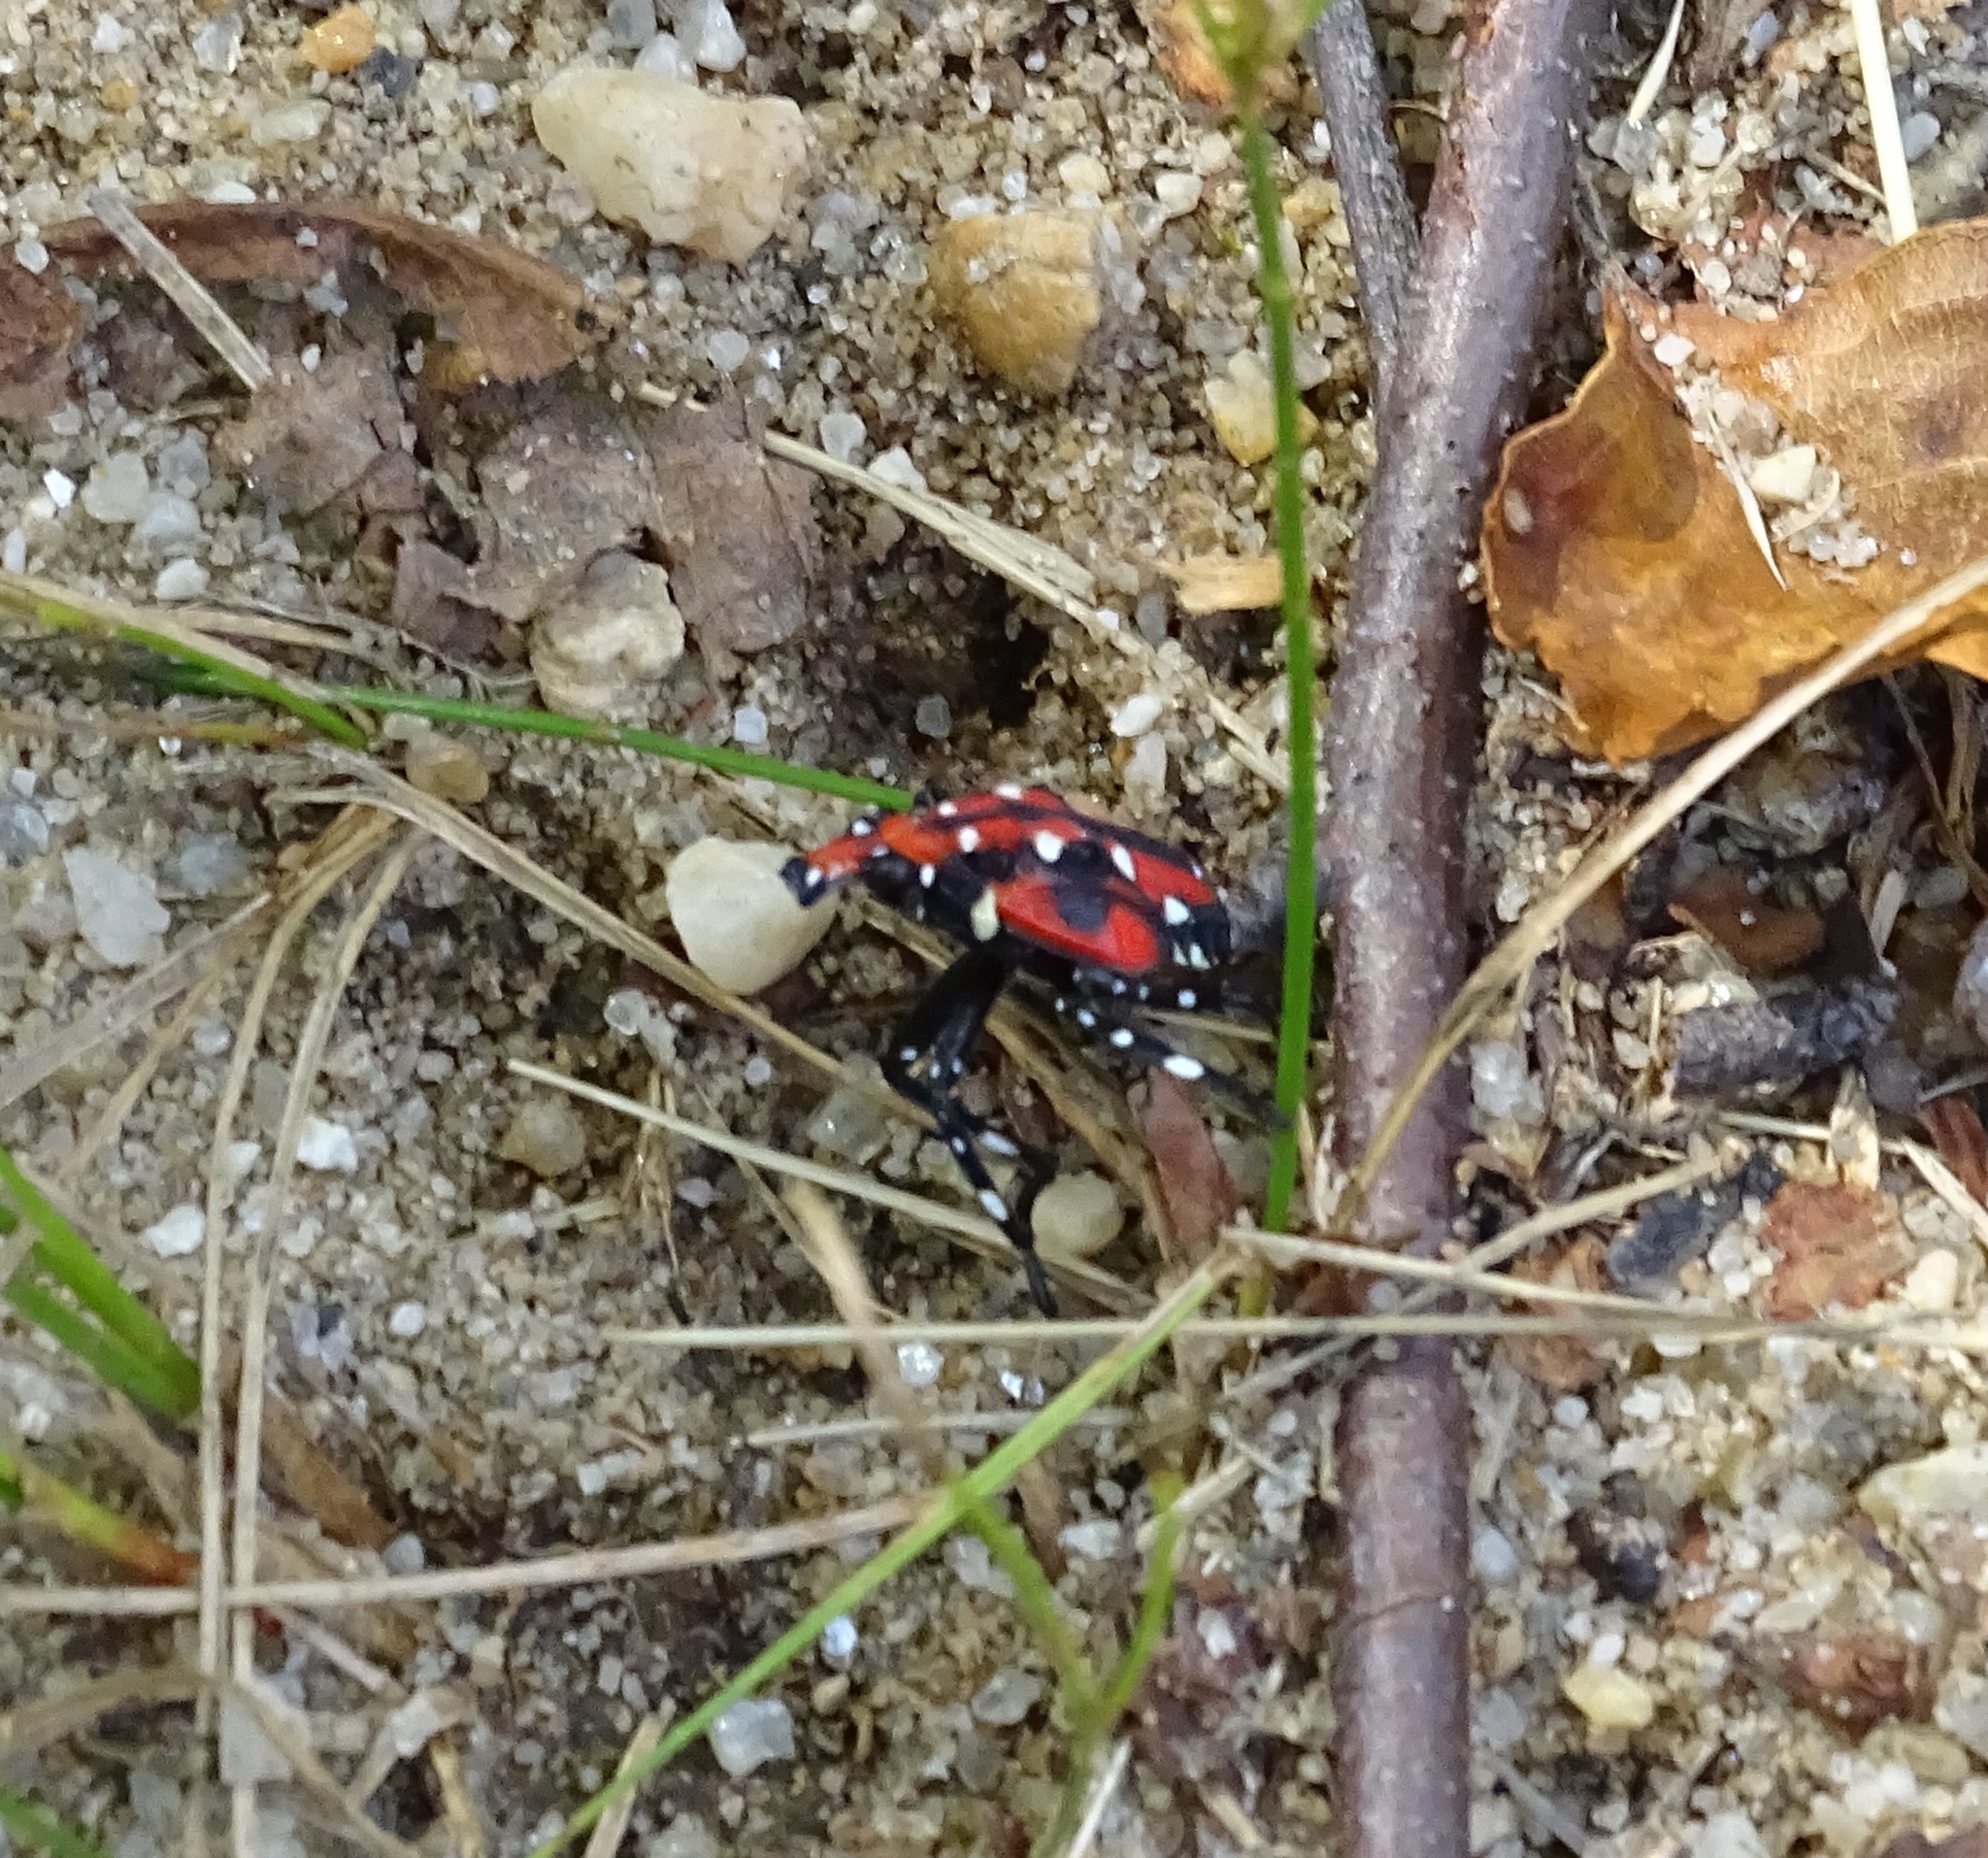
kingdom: Animalia
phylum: Arthropoda
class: Insecta
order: Hemiptera
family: Fulgoridae
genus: Lycorma
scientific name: Lycorma delicatula
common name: Spotted lanternfly
